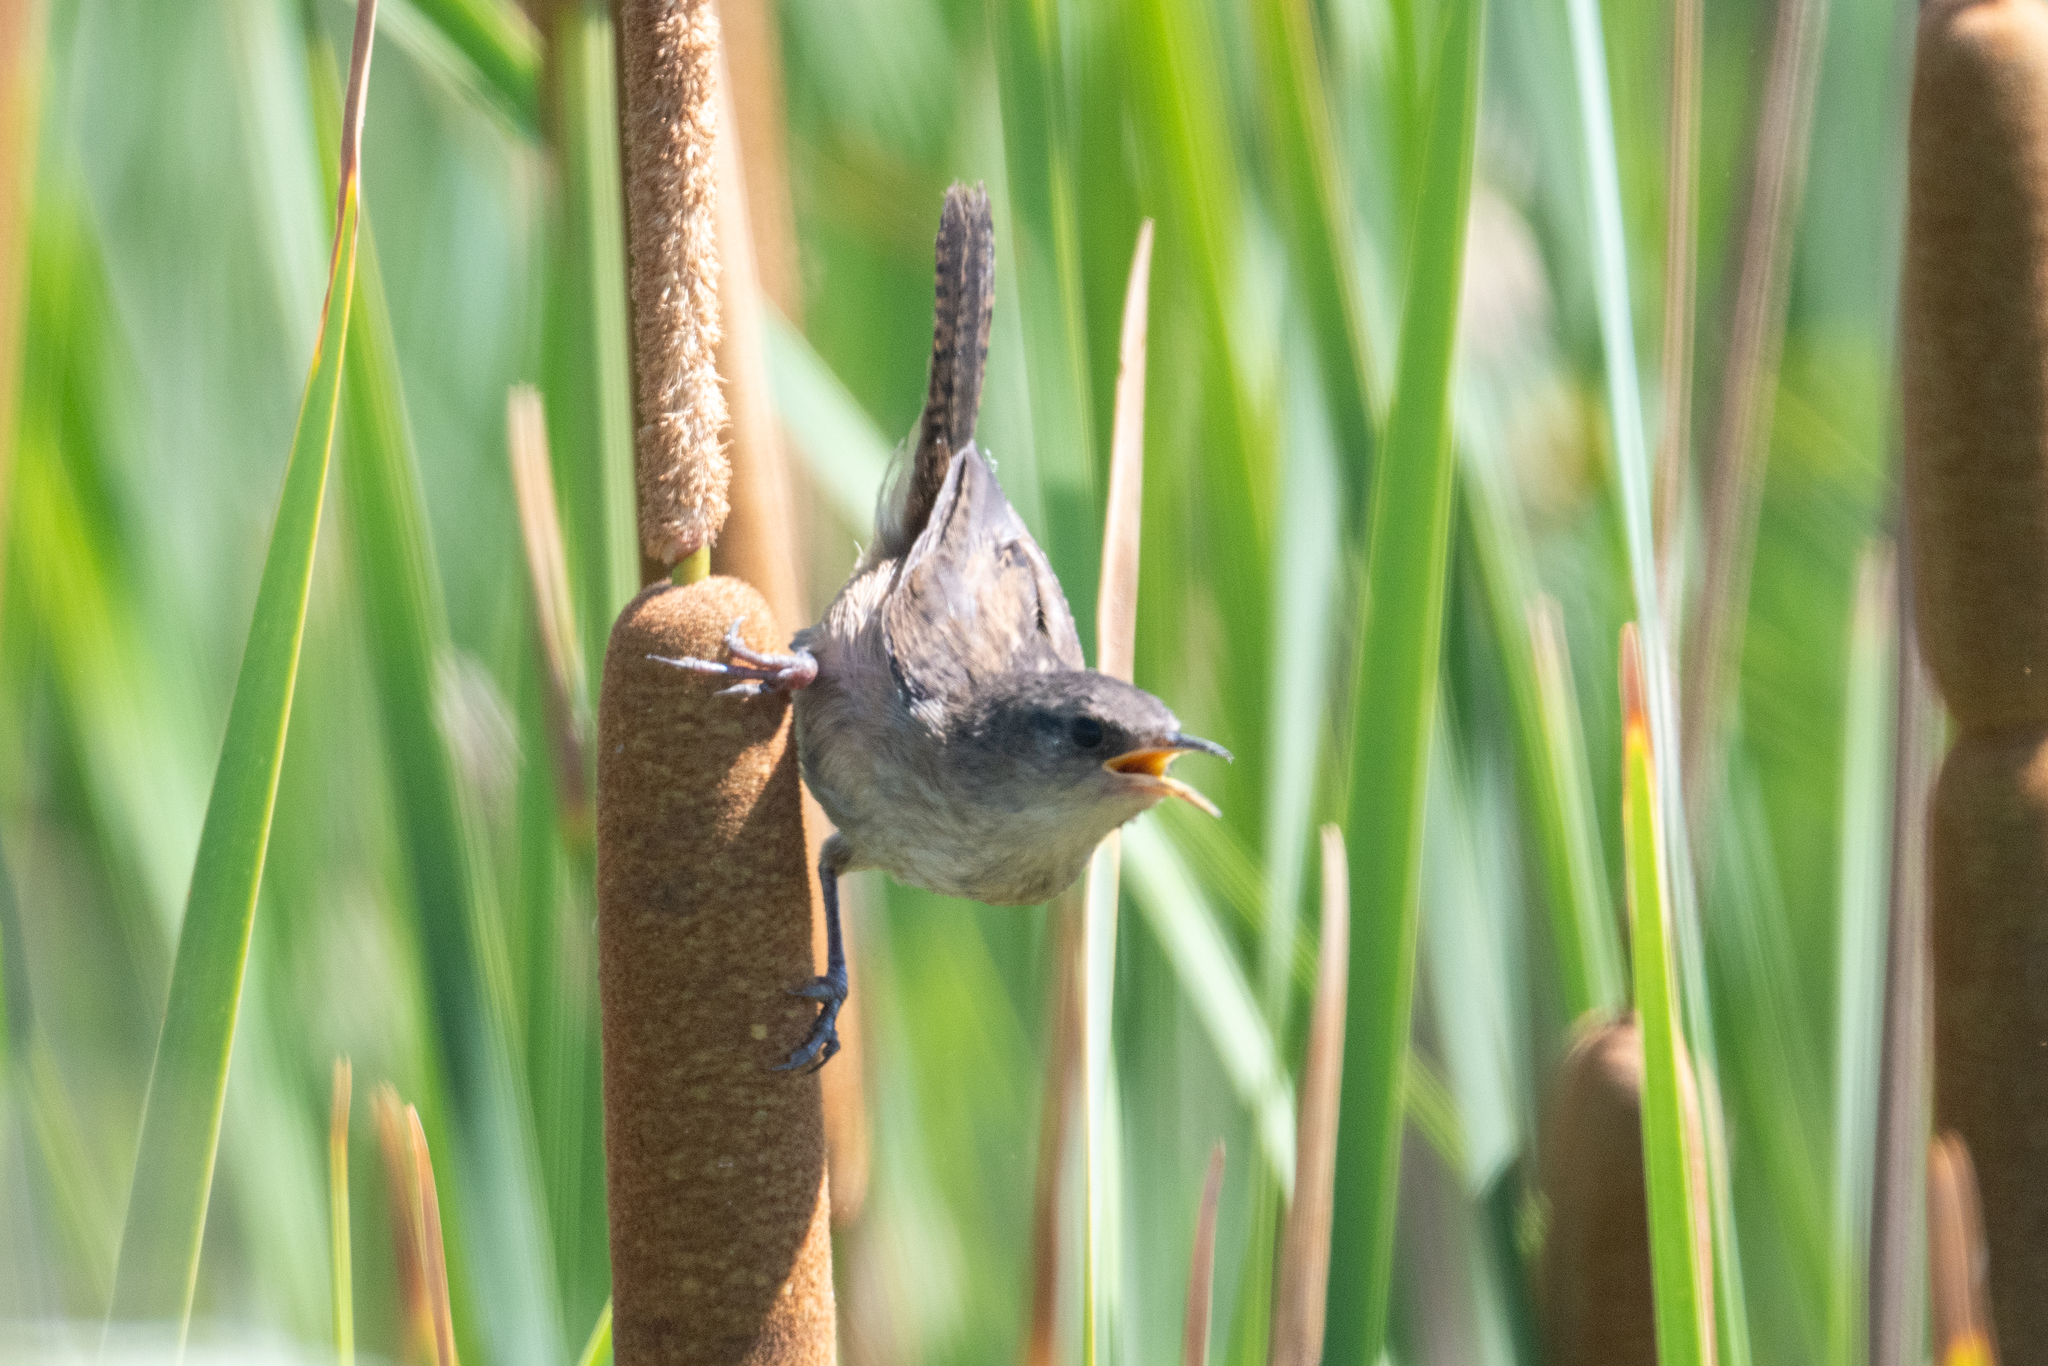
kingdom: Animalia
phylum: Chordata
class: Aves
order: Passeriformes
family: Troglodytidae
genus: Cistothorus
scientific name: Cistothorus palustris
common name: Marsh wren
